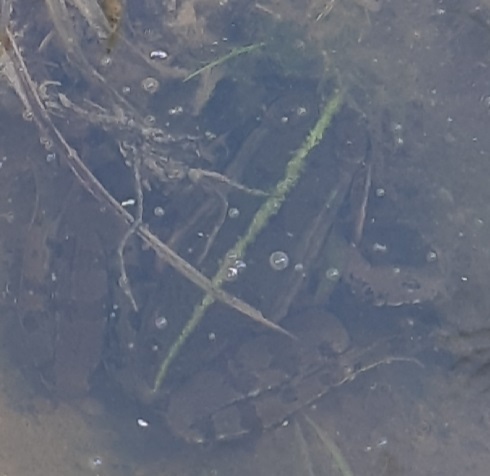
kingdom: Animalia
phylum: Chordata
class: Amphibia
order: Anura
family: Ranidae
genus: Pelophylax
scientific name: Pelophylax
